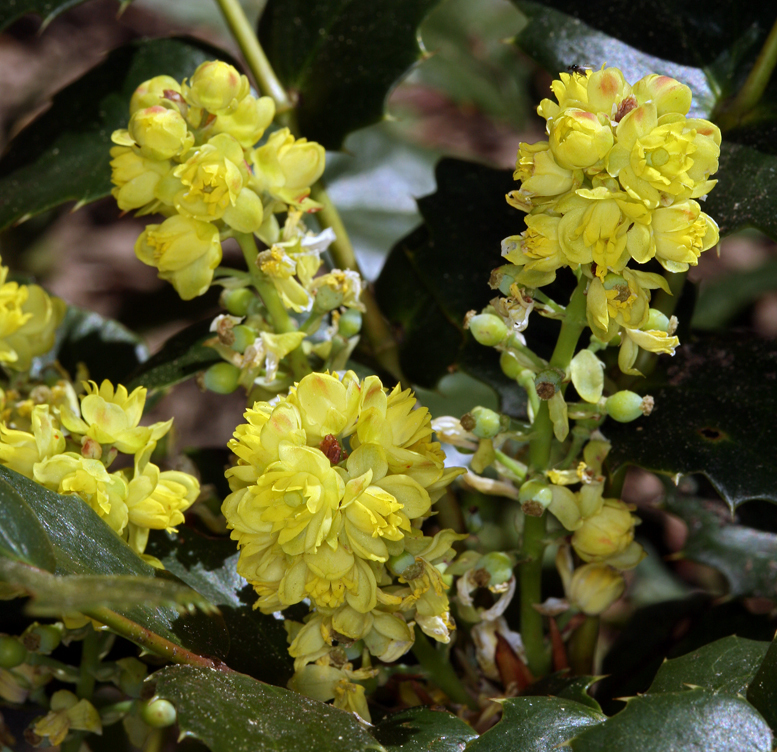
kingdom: Plantae
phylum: Tracheophyta
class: Magnoliopsida
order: Ranunculales
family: Berberidaceae
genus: Mahonia
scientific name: Mahonia nervosa
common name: Cascade oregon-grape
